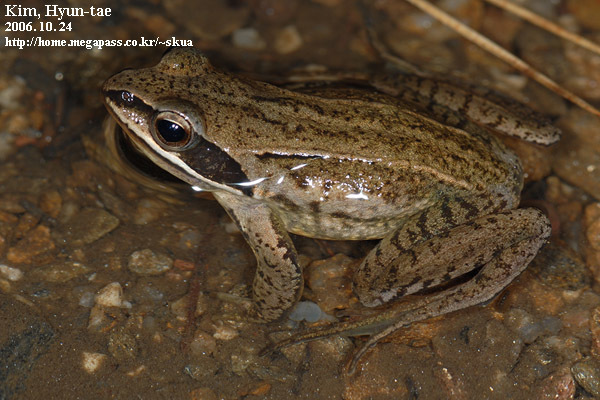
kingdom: Animalia
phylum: Chordata
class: Amphibia
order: Anura
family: Ranidae
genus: Rana
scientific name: Rana coreana
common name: Korean brown frog
